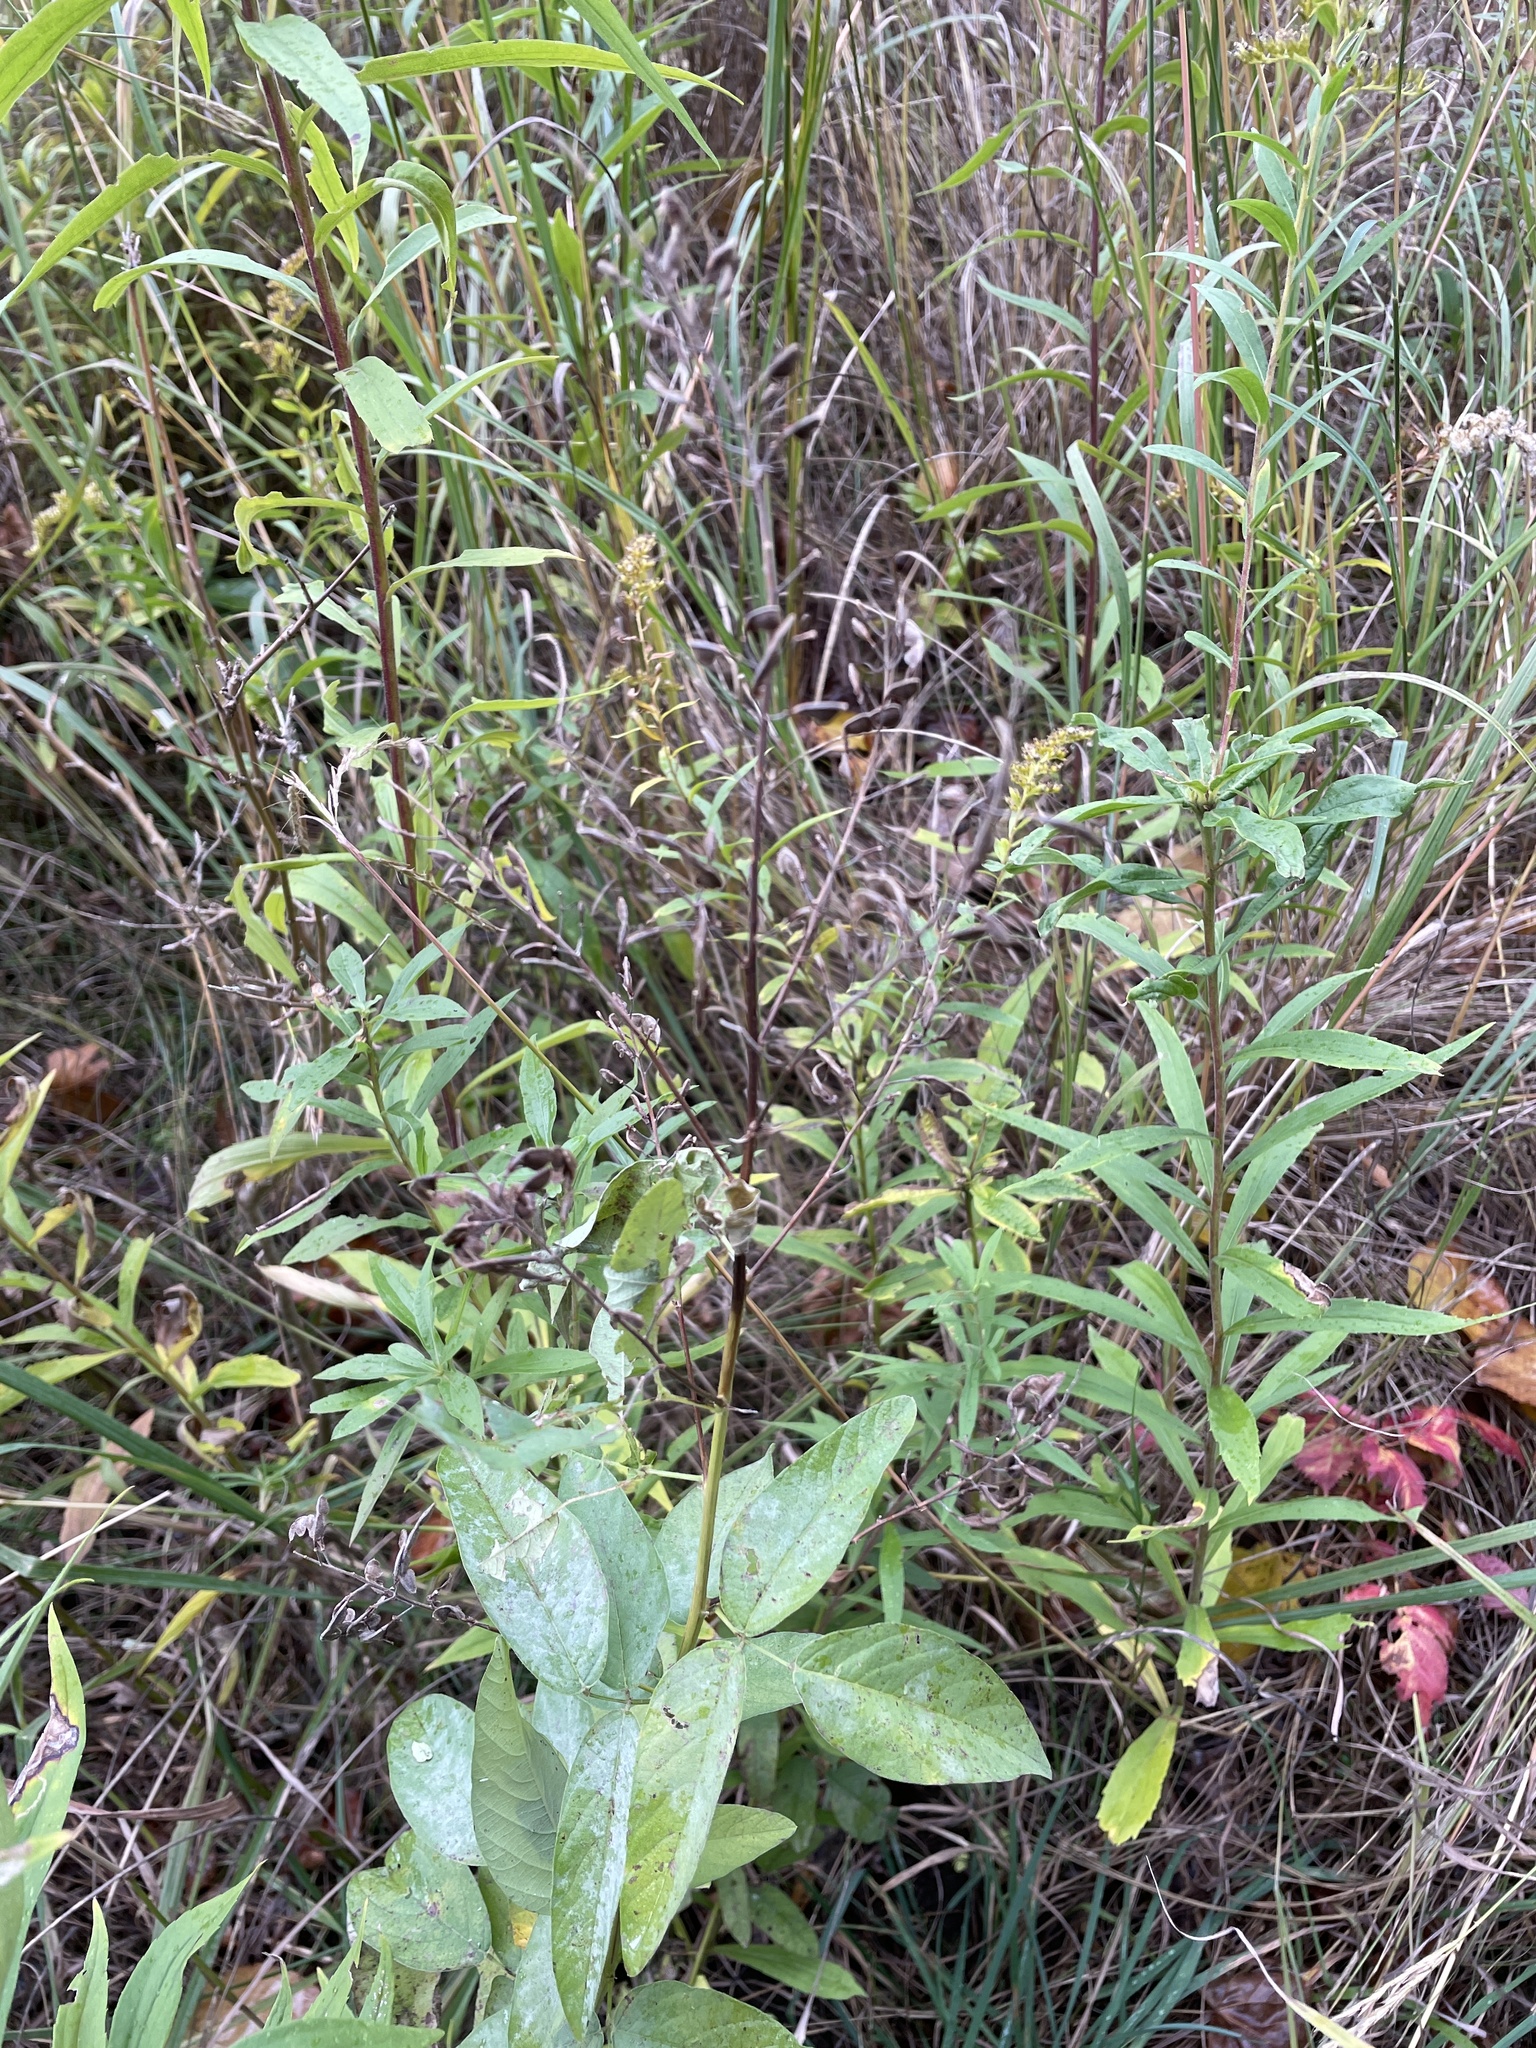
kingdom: Plantae
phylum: Tracheophyta
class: Magnoliopsida
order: Fabales
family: Fabaceae
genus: Desmodium
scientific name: Desmodium canadense
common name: Canada tick-trefoil
